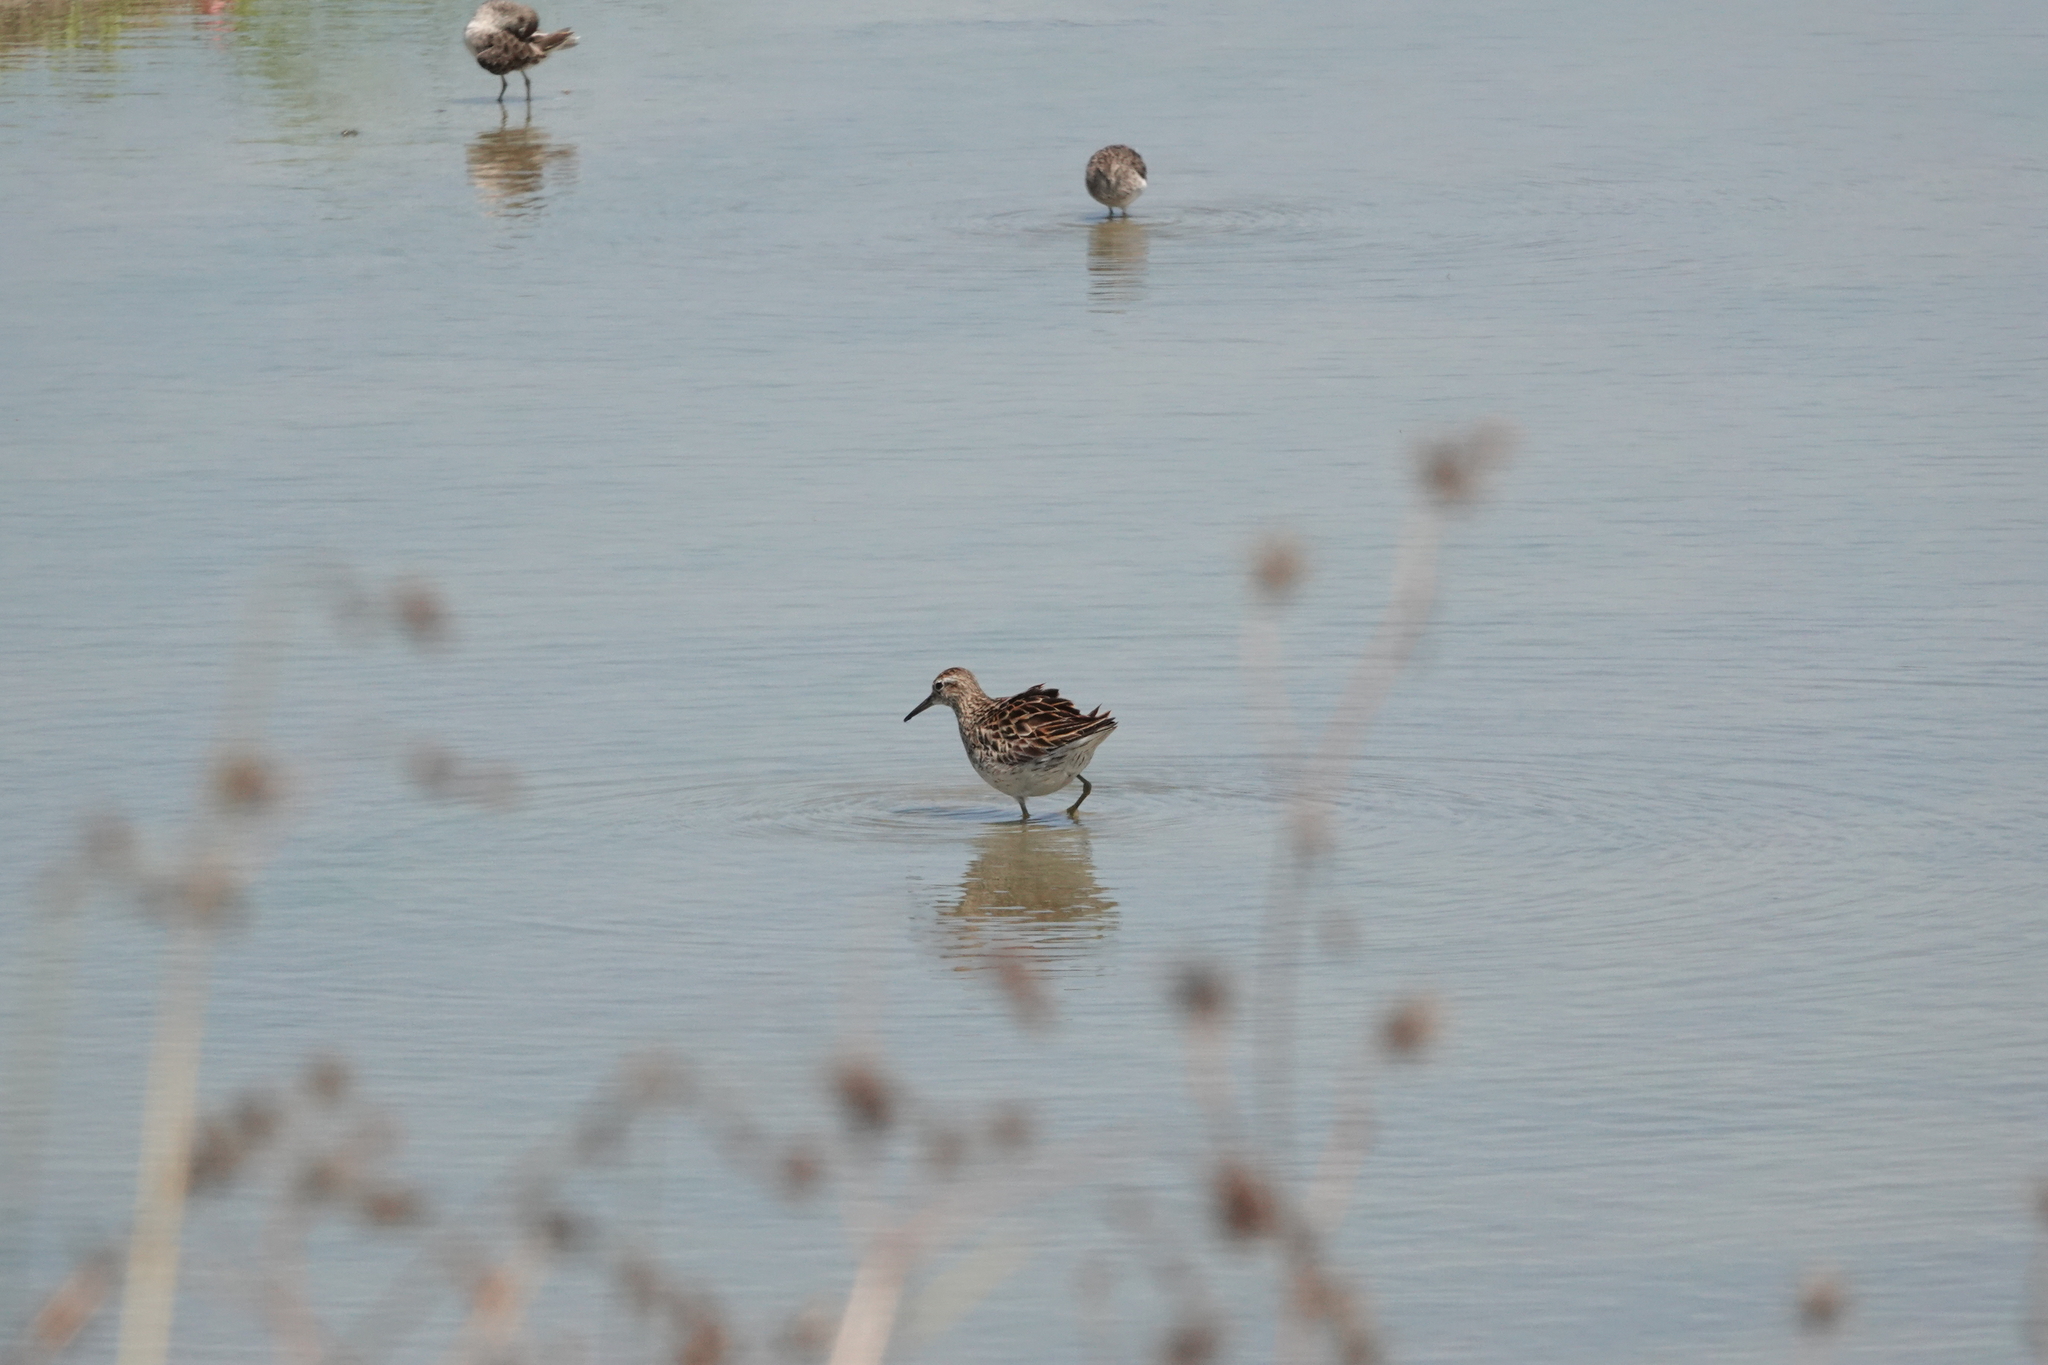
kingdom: Animalia
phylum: Chordata
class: Aves
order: Charadriiformes
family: Scolopacidae
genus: Calidris
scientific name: Calidris acuminata
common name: Sharp-tailed sandpiper
